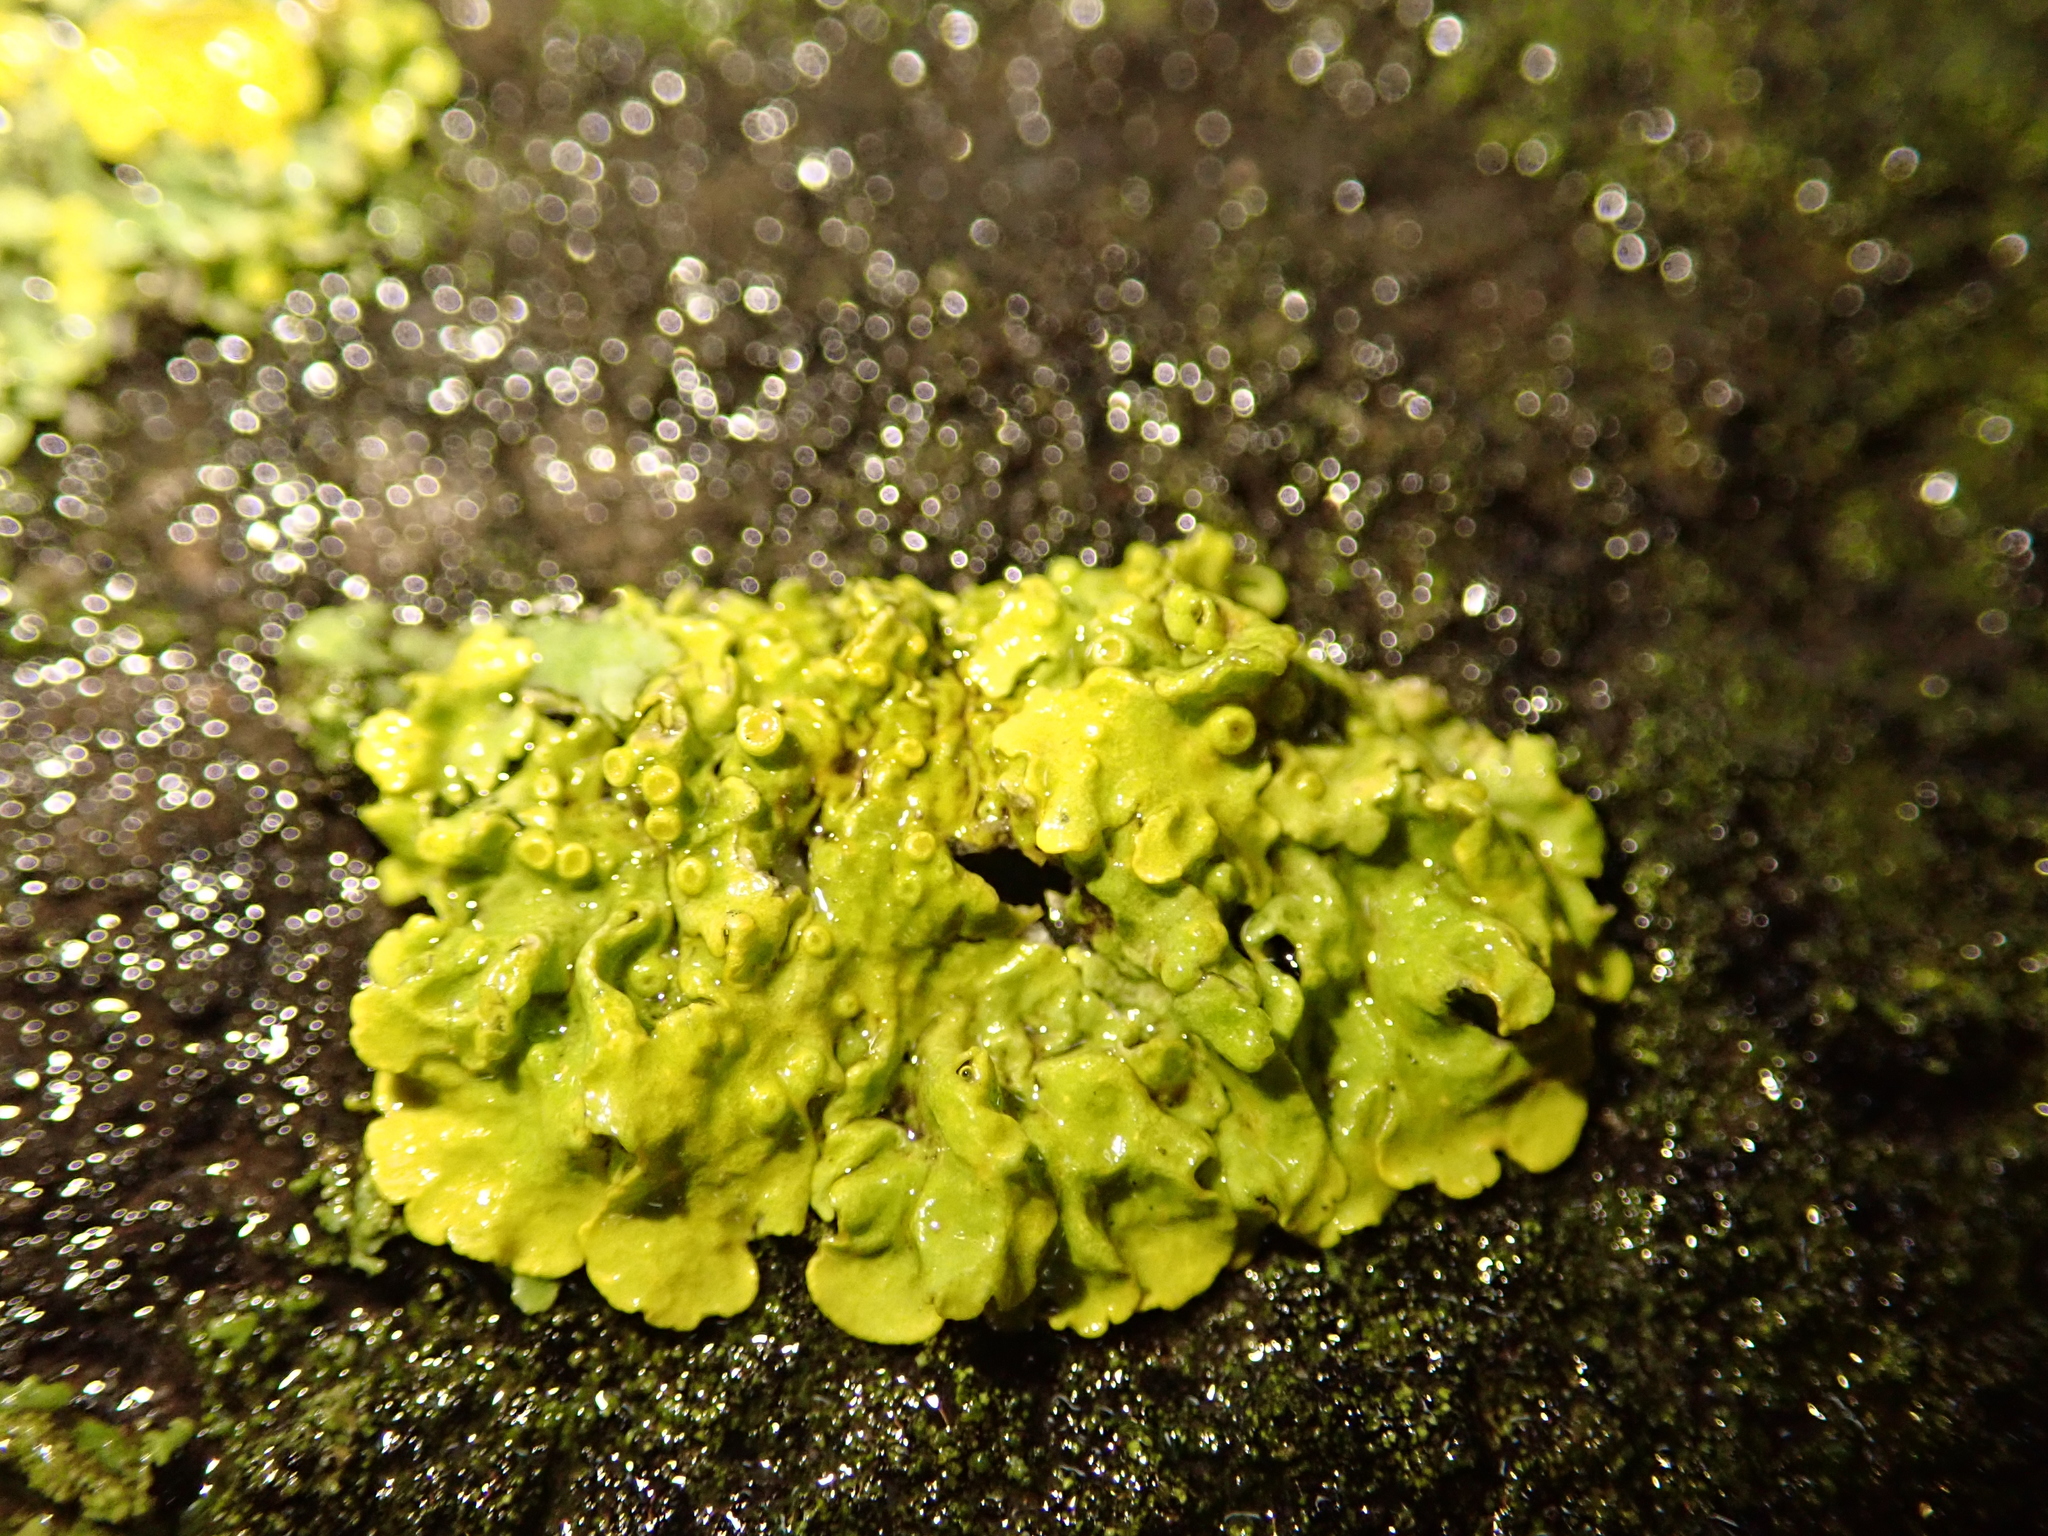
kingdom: Fungi
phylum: Ascomycota
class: Lecanoromycetes
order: Teloschistales
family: Teloschistaceae
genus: Xanthoria
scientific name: Xanthoria parietina
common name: Common orange lichen
